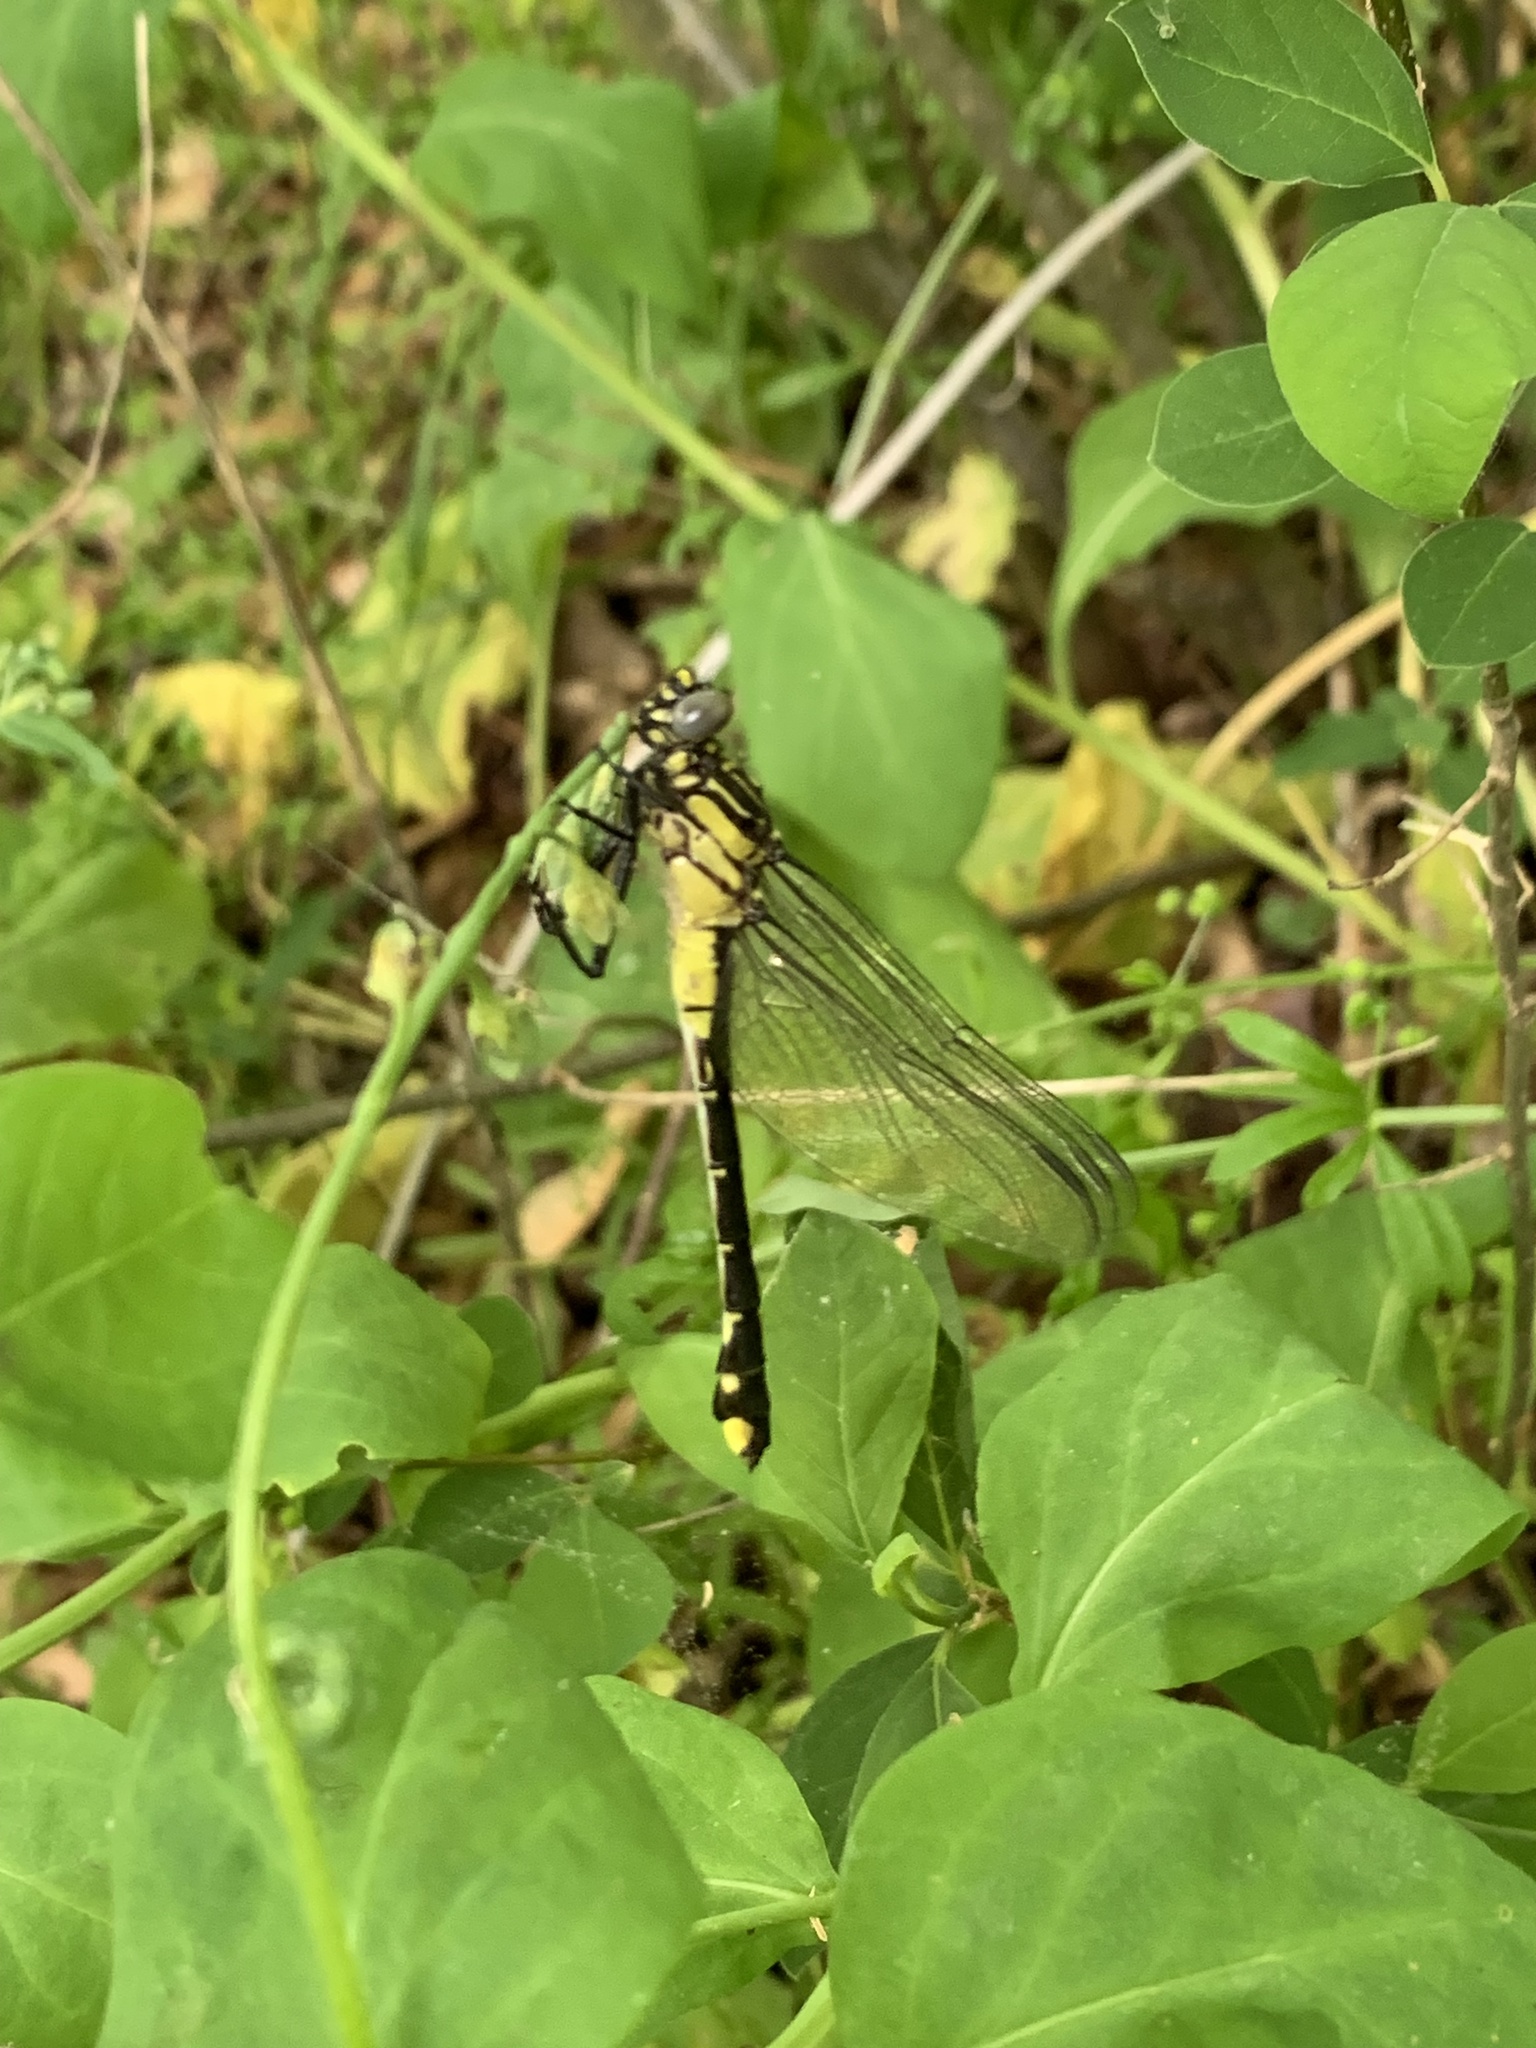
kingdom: Animalia
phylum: Arthropoda
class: Insecta
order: Odonata
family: Gomphidae
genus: Gomphurus
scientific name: Gomphurus vastus
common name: Cobra clubtail
